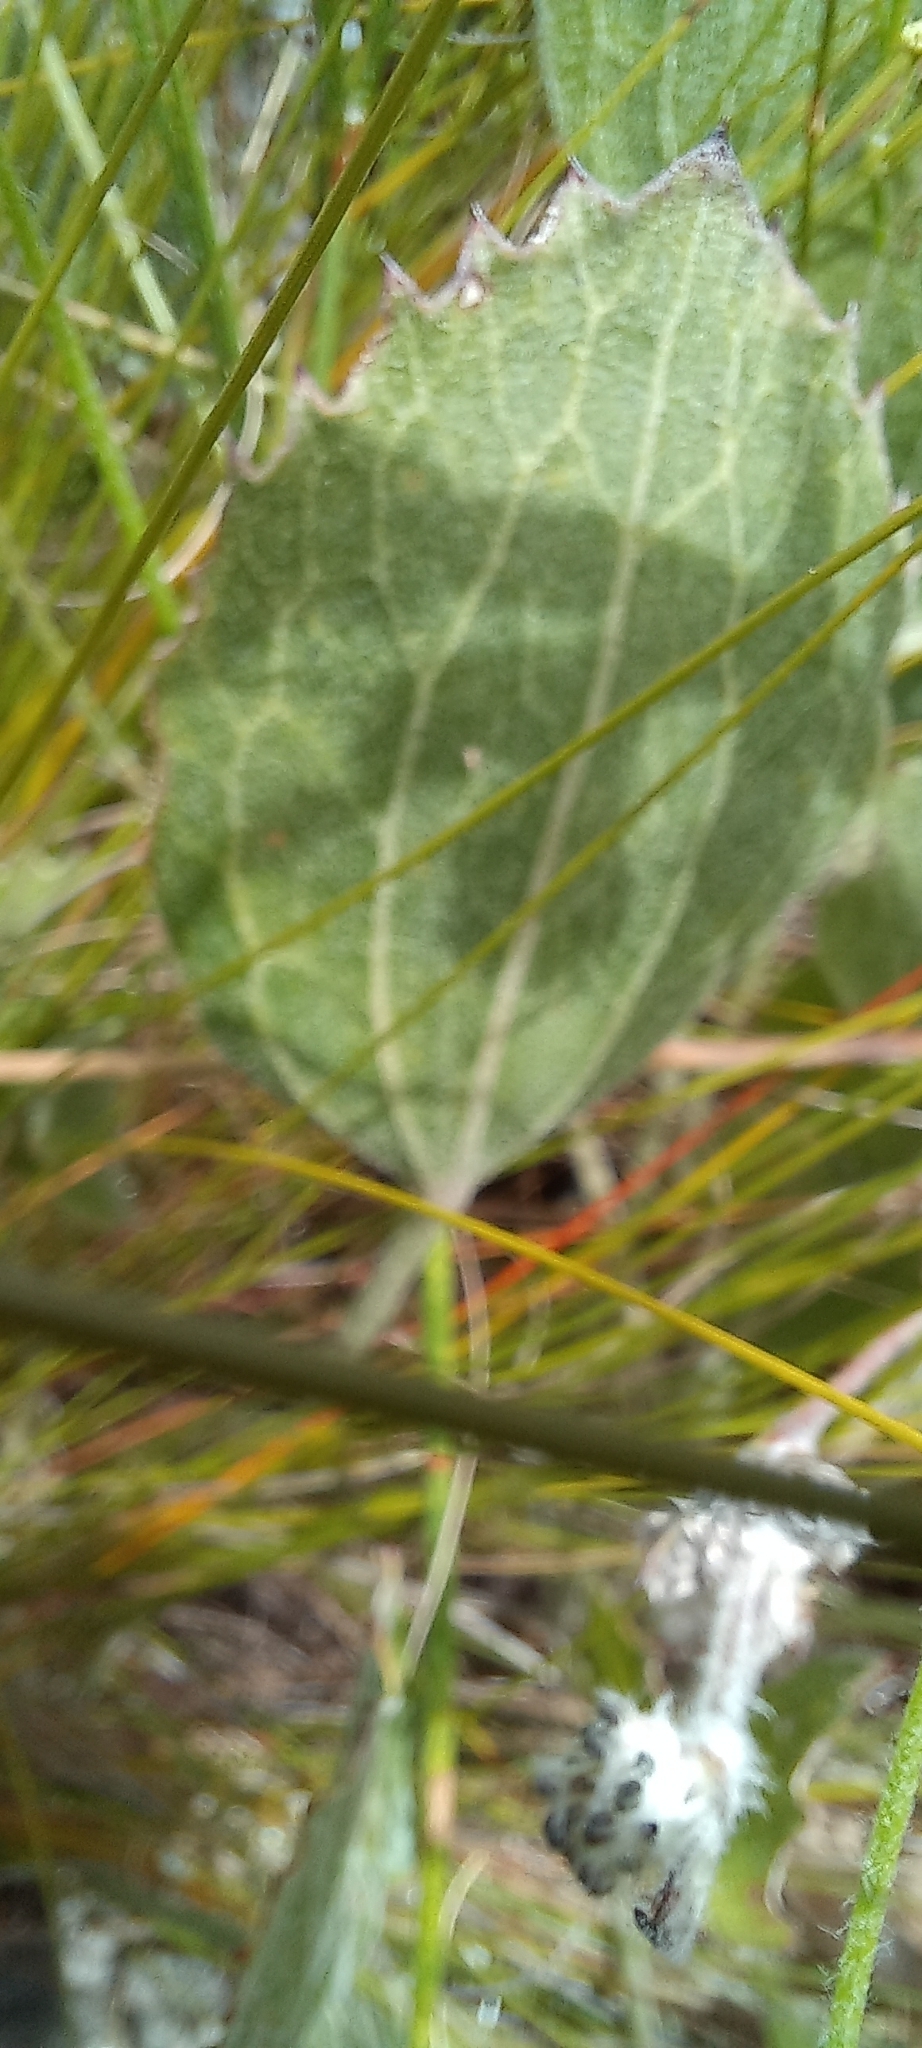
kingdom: Plantae
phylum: Tracheophyta
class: Magnoliopsida
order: Apiales
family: Apiaceae
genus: Centella
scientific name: Centella triloba
